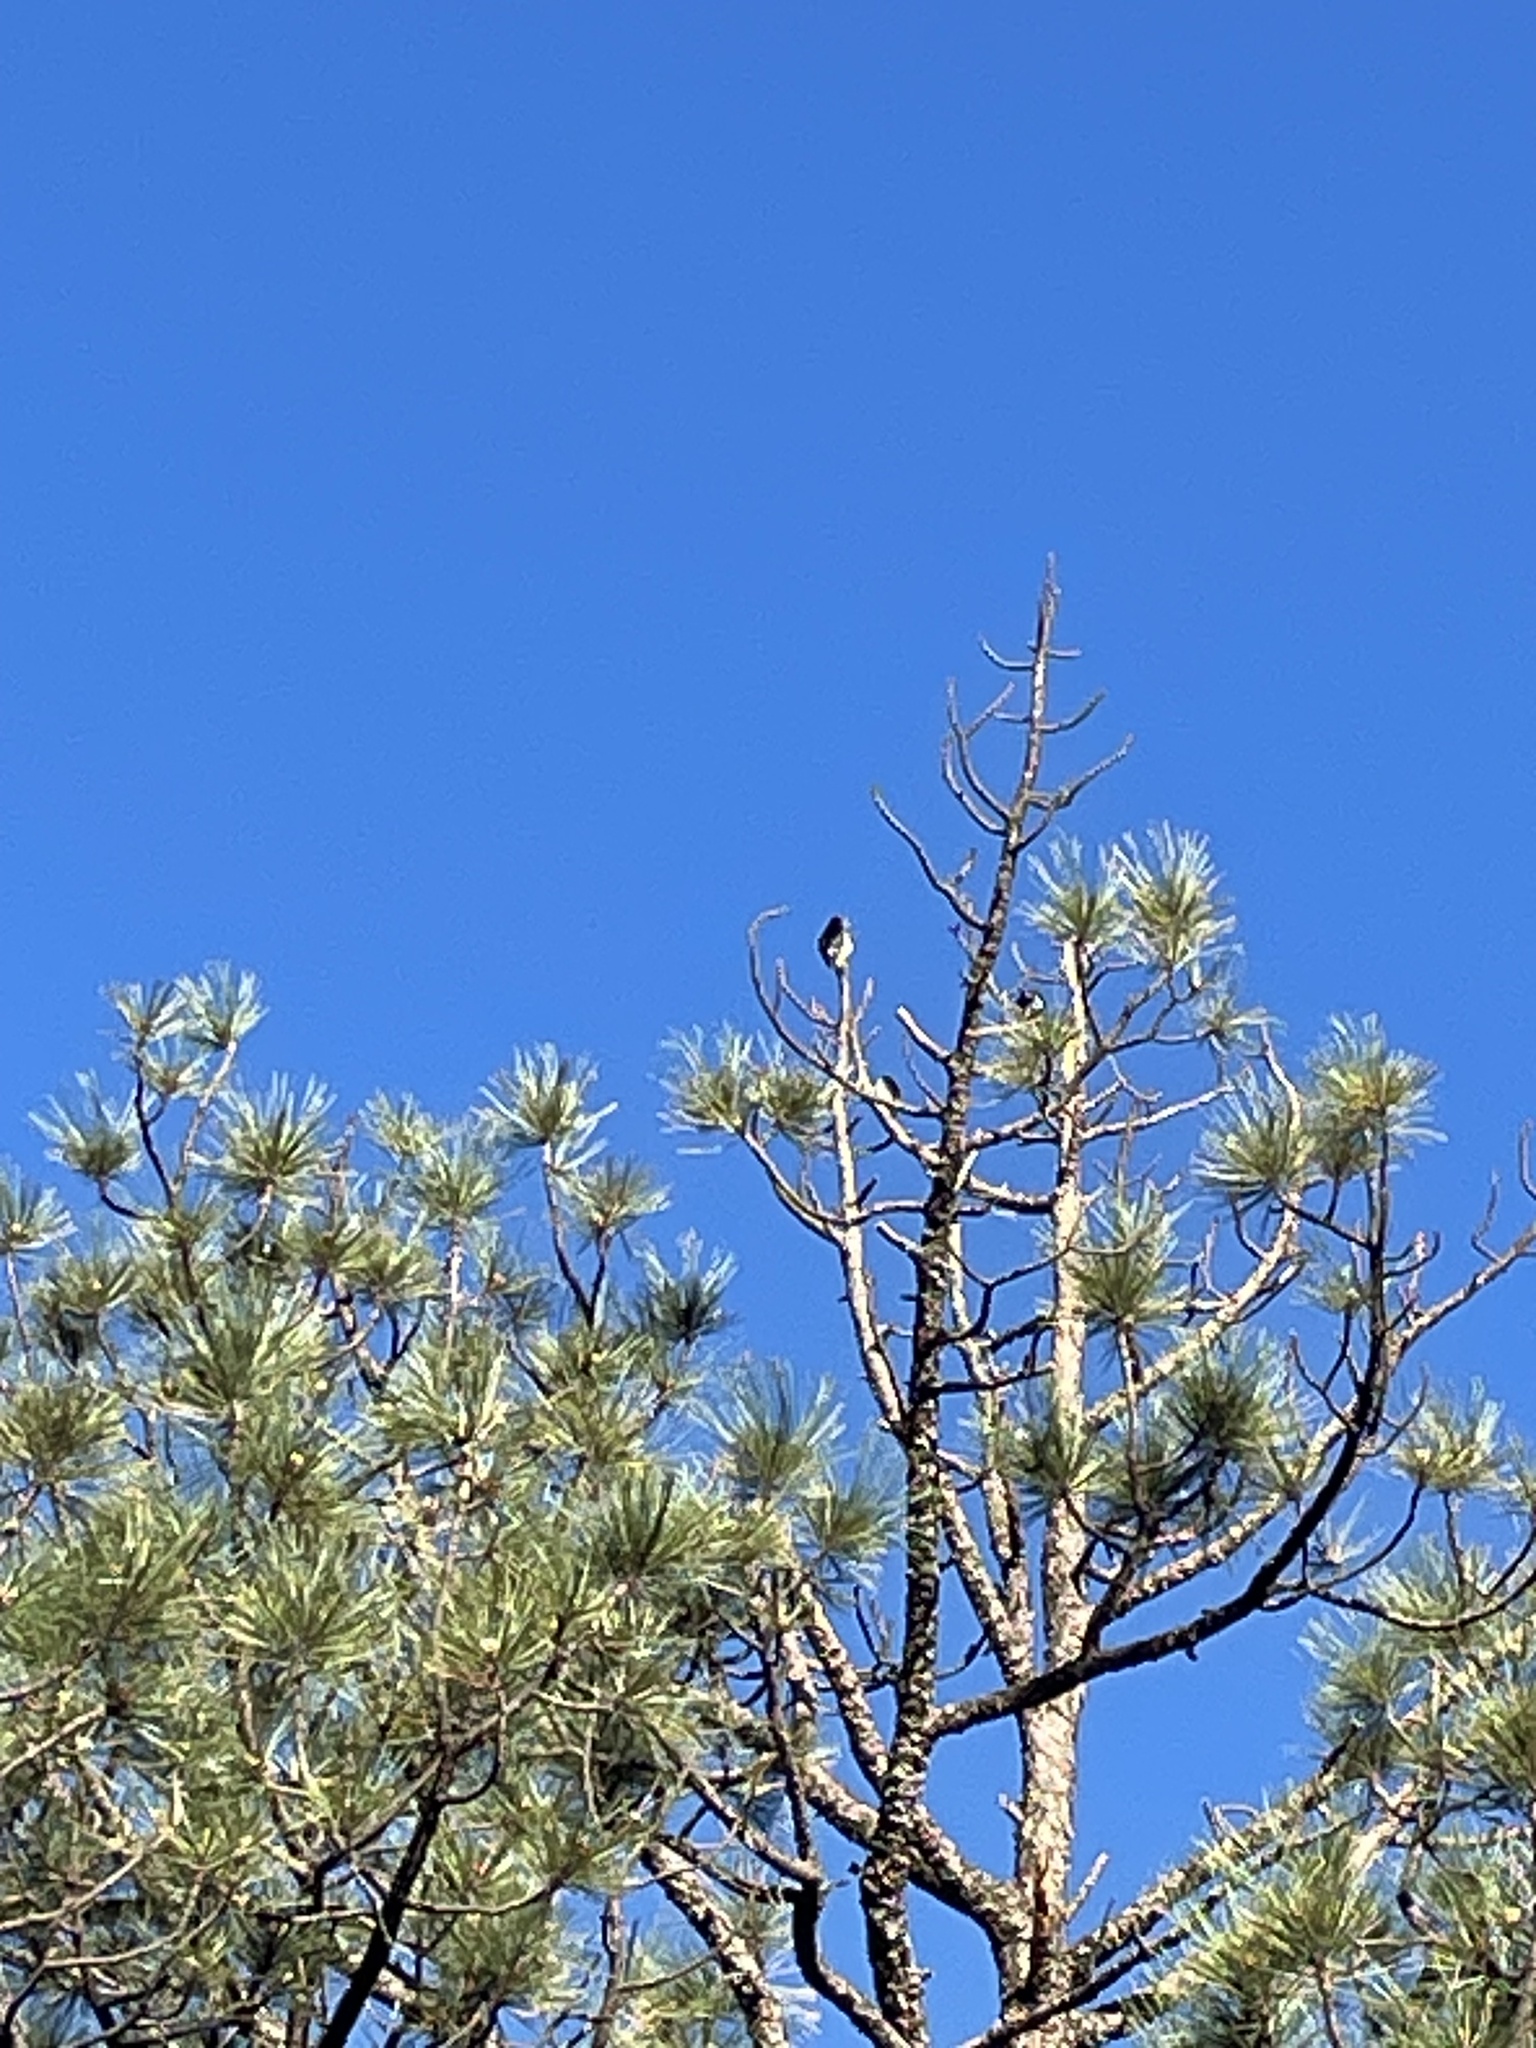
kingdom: Animalia
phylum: Chordata
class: Aves
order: Piciformes
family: Picidae
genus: Melanerpes
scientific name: Melanerpes formicivorus
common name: Acorn woodpecker
